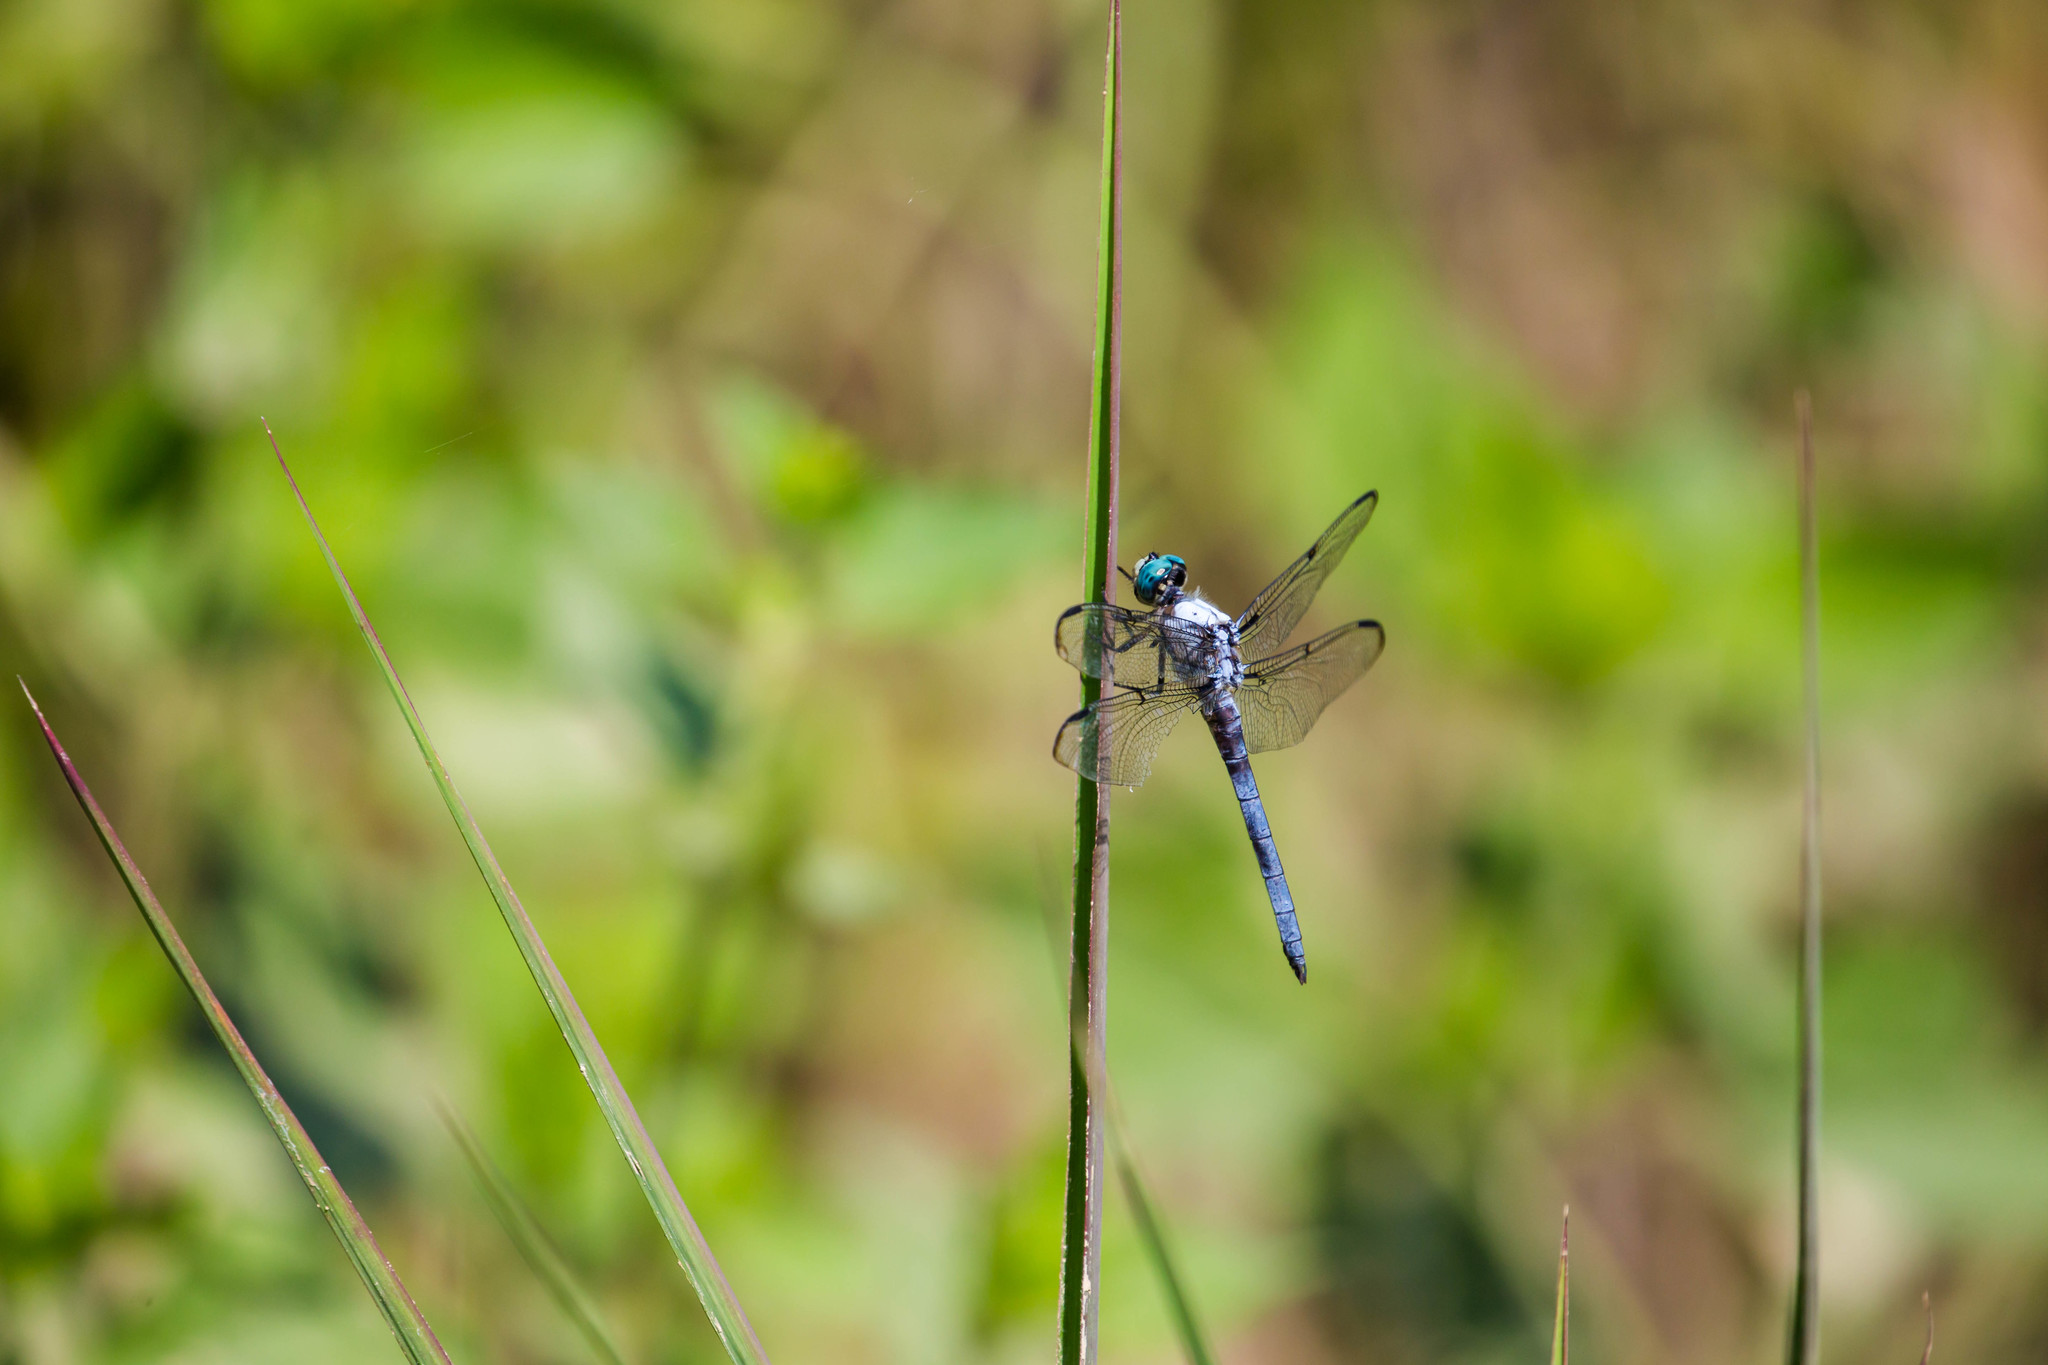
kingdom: Animalia
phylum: Arthropoda
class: Insecta
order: Odonata
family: Libellulidae
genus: Libellula
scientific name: Libellula vibrans
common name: Great blue skimmer
